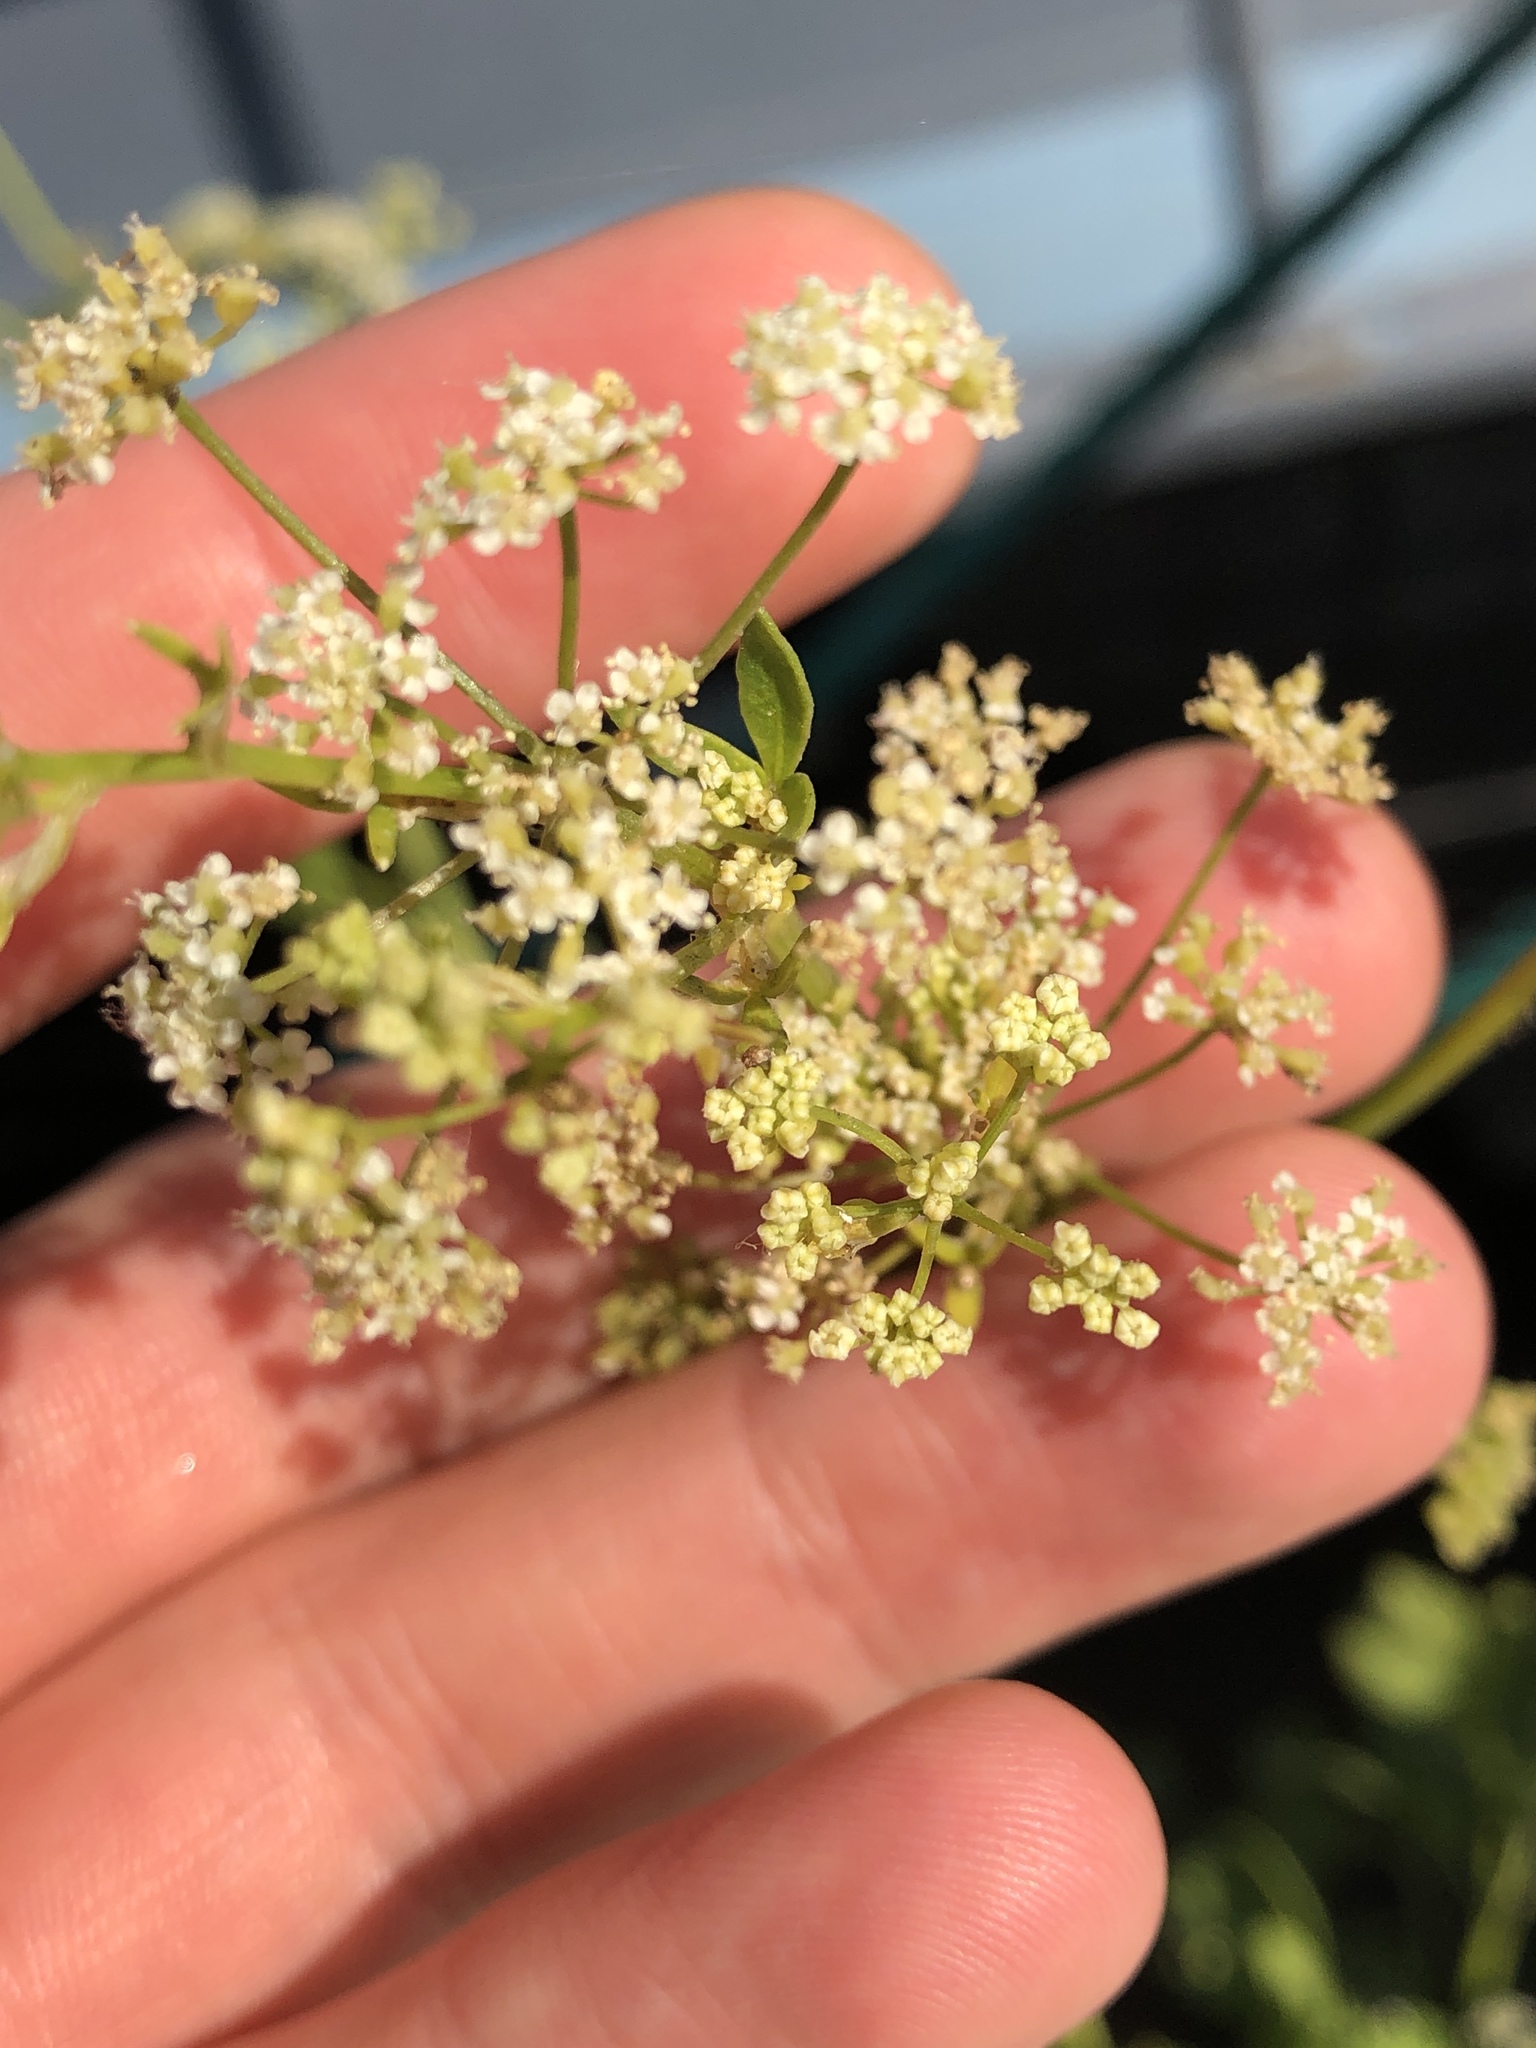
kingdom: Plantae
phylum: Tracheophyta
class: Magnoliopsida
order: Apiales
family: Apiaceae
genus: Apium
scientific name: Apium graveolens
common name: Wild celery
